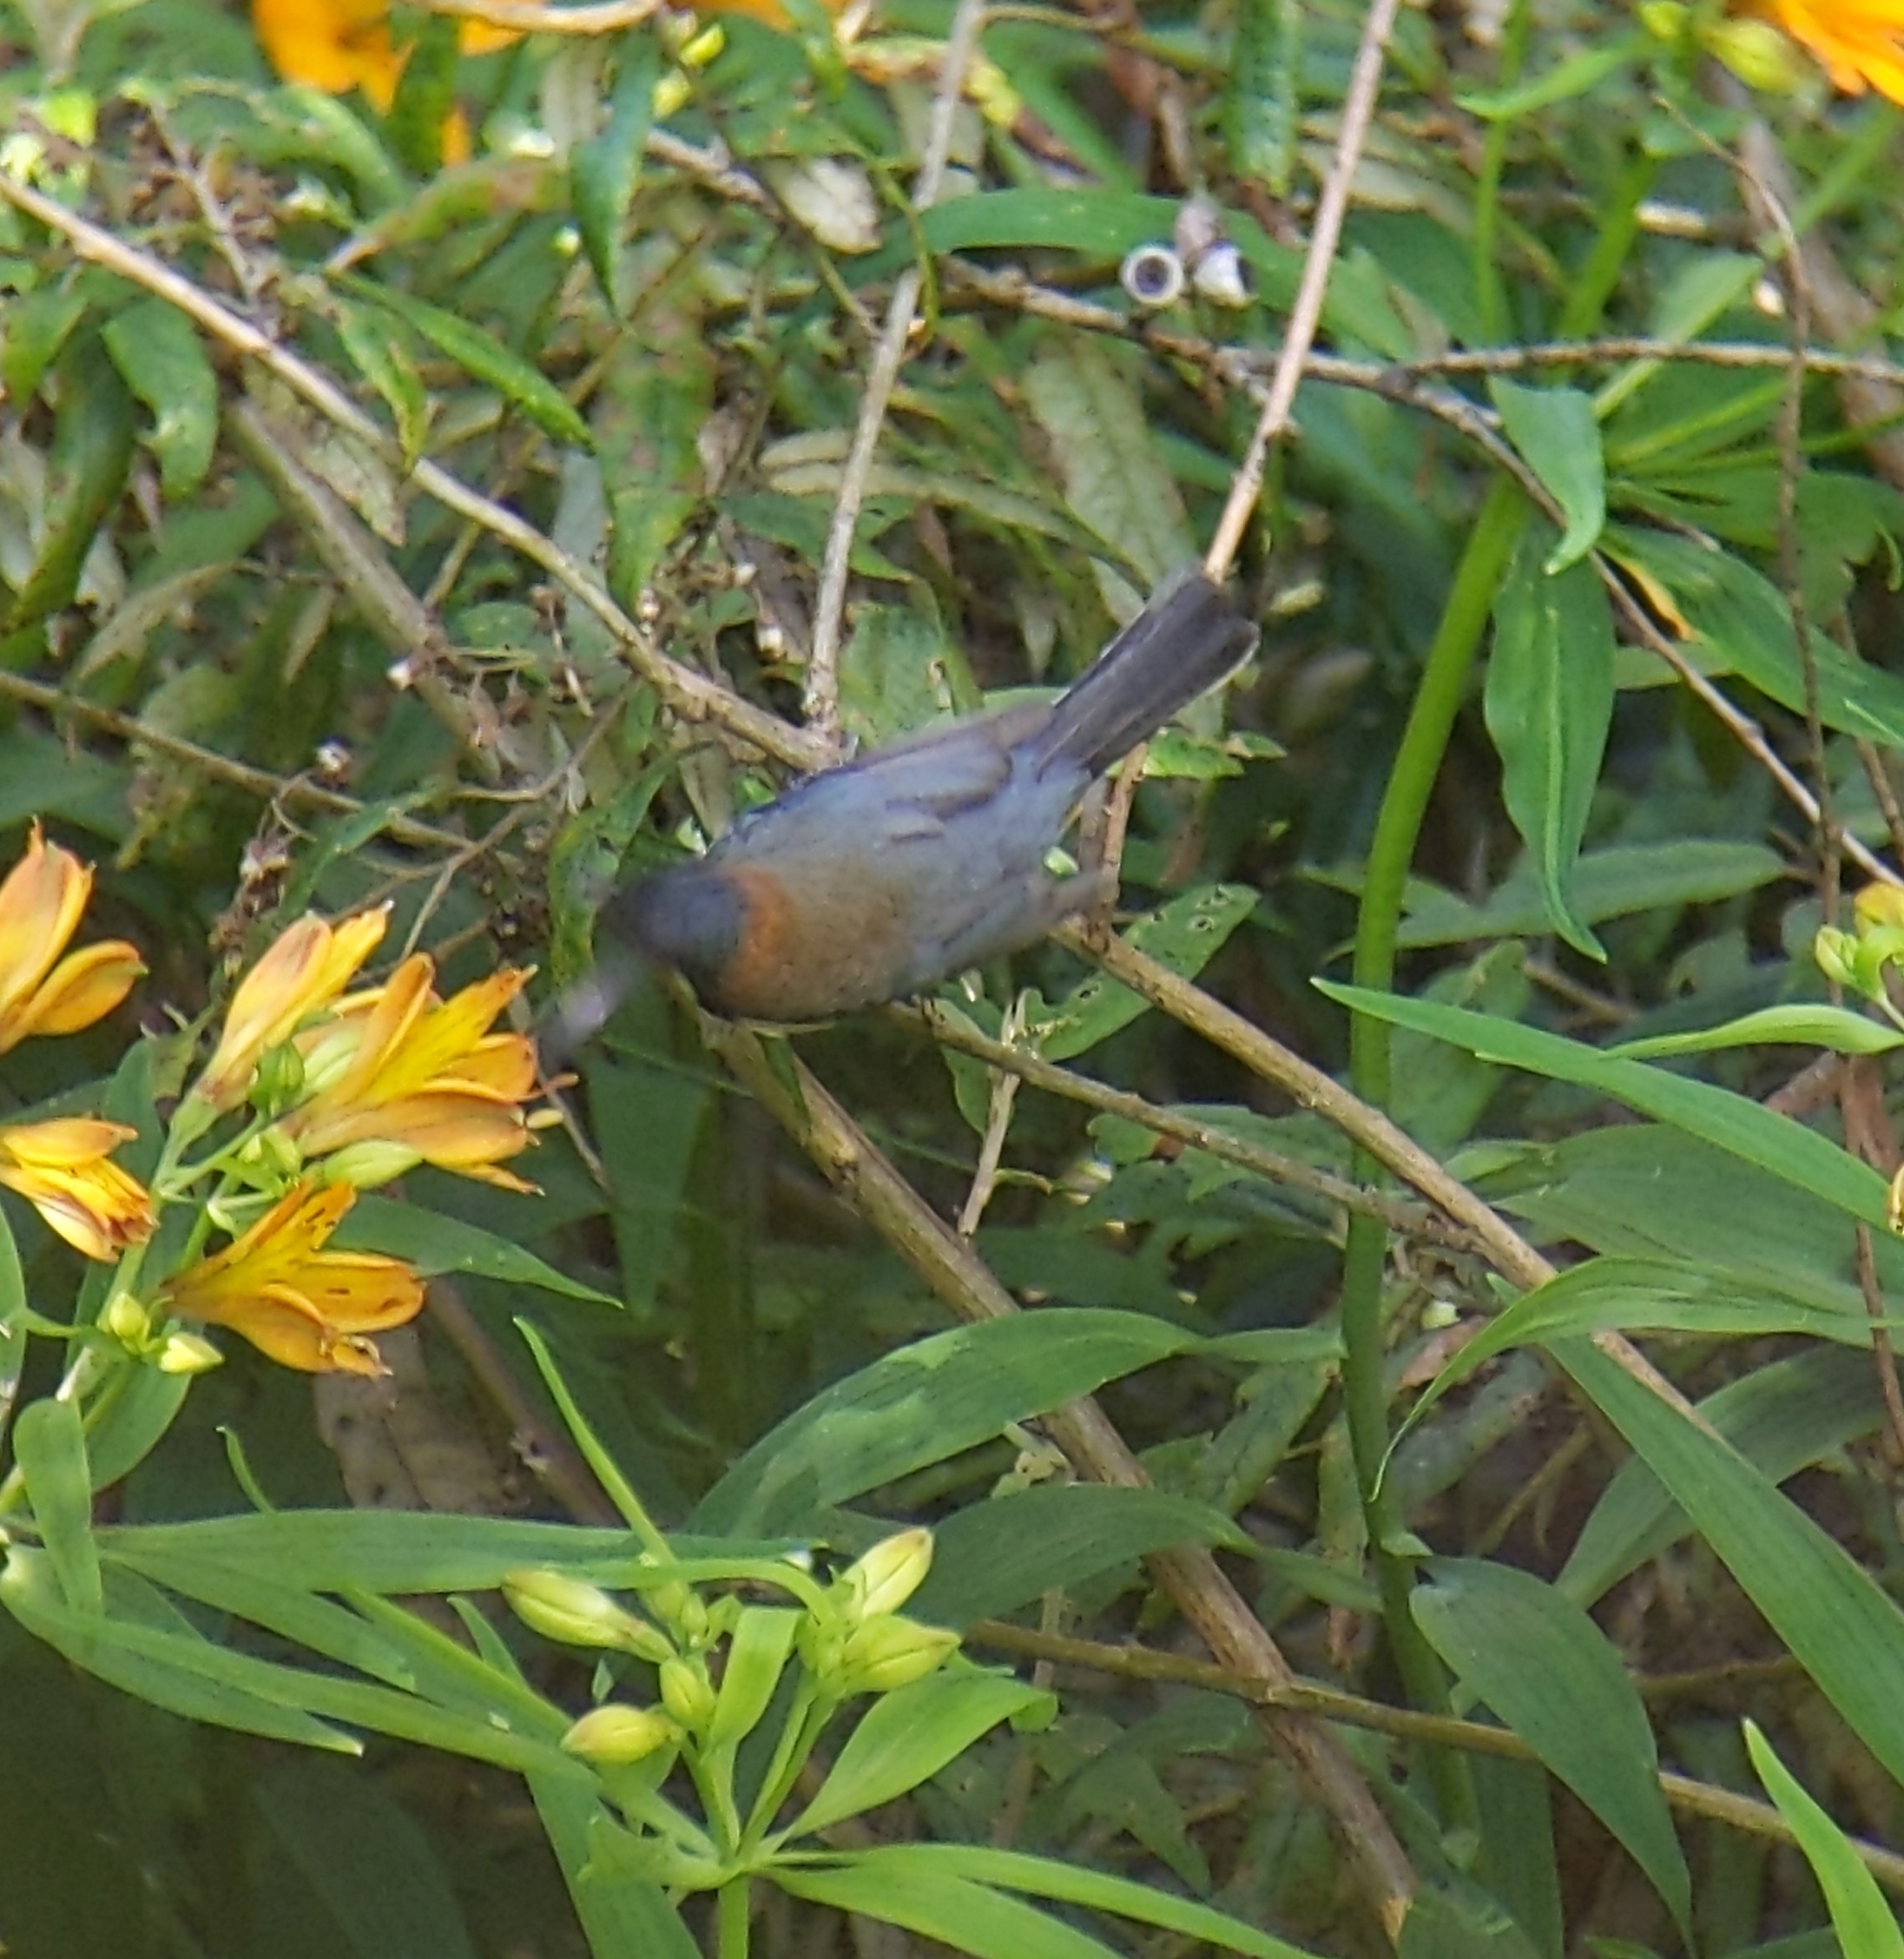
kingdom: Animalia
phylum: Chordata
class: Aves
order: Passeriformes
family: Meliphagidae
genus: Acanthorhynchus
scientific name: Acanthorhynchus tenuirostris
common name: Eastern spinebill
